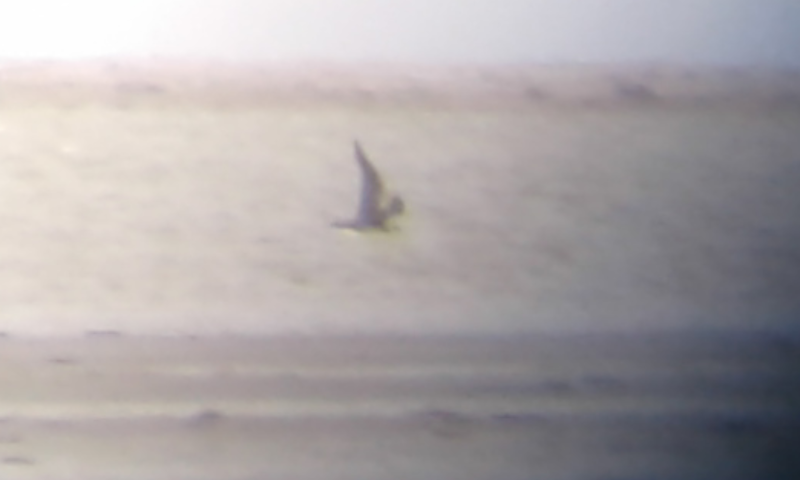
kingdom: Animalia
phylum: Chordata
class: Aves
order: Charadriiformes
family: Stercorariidae
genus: Stercorarius
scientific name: Stercorarius parasiticus
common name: Parasitic jaeger
